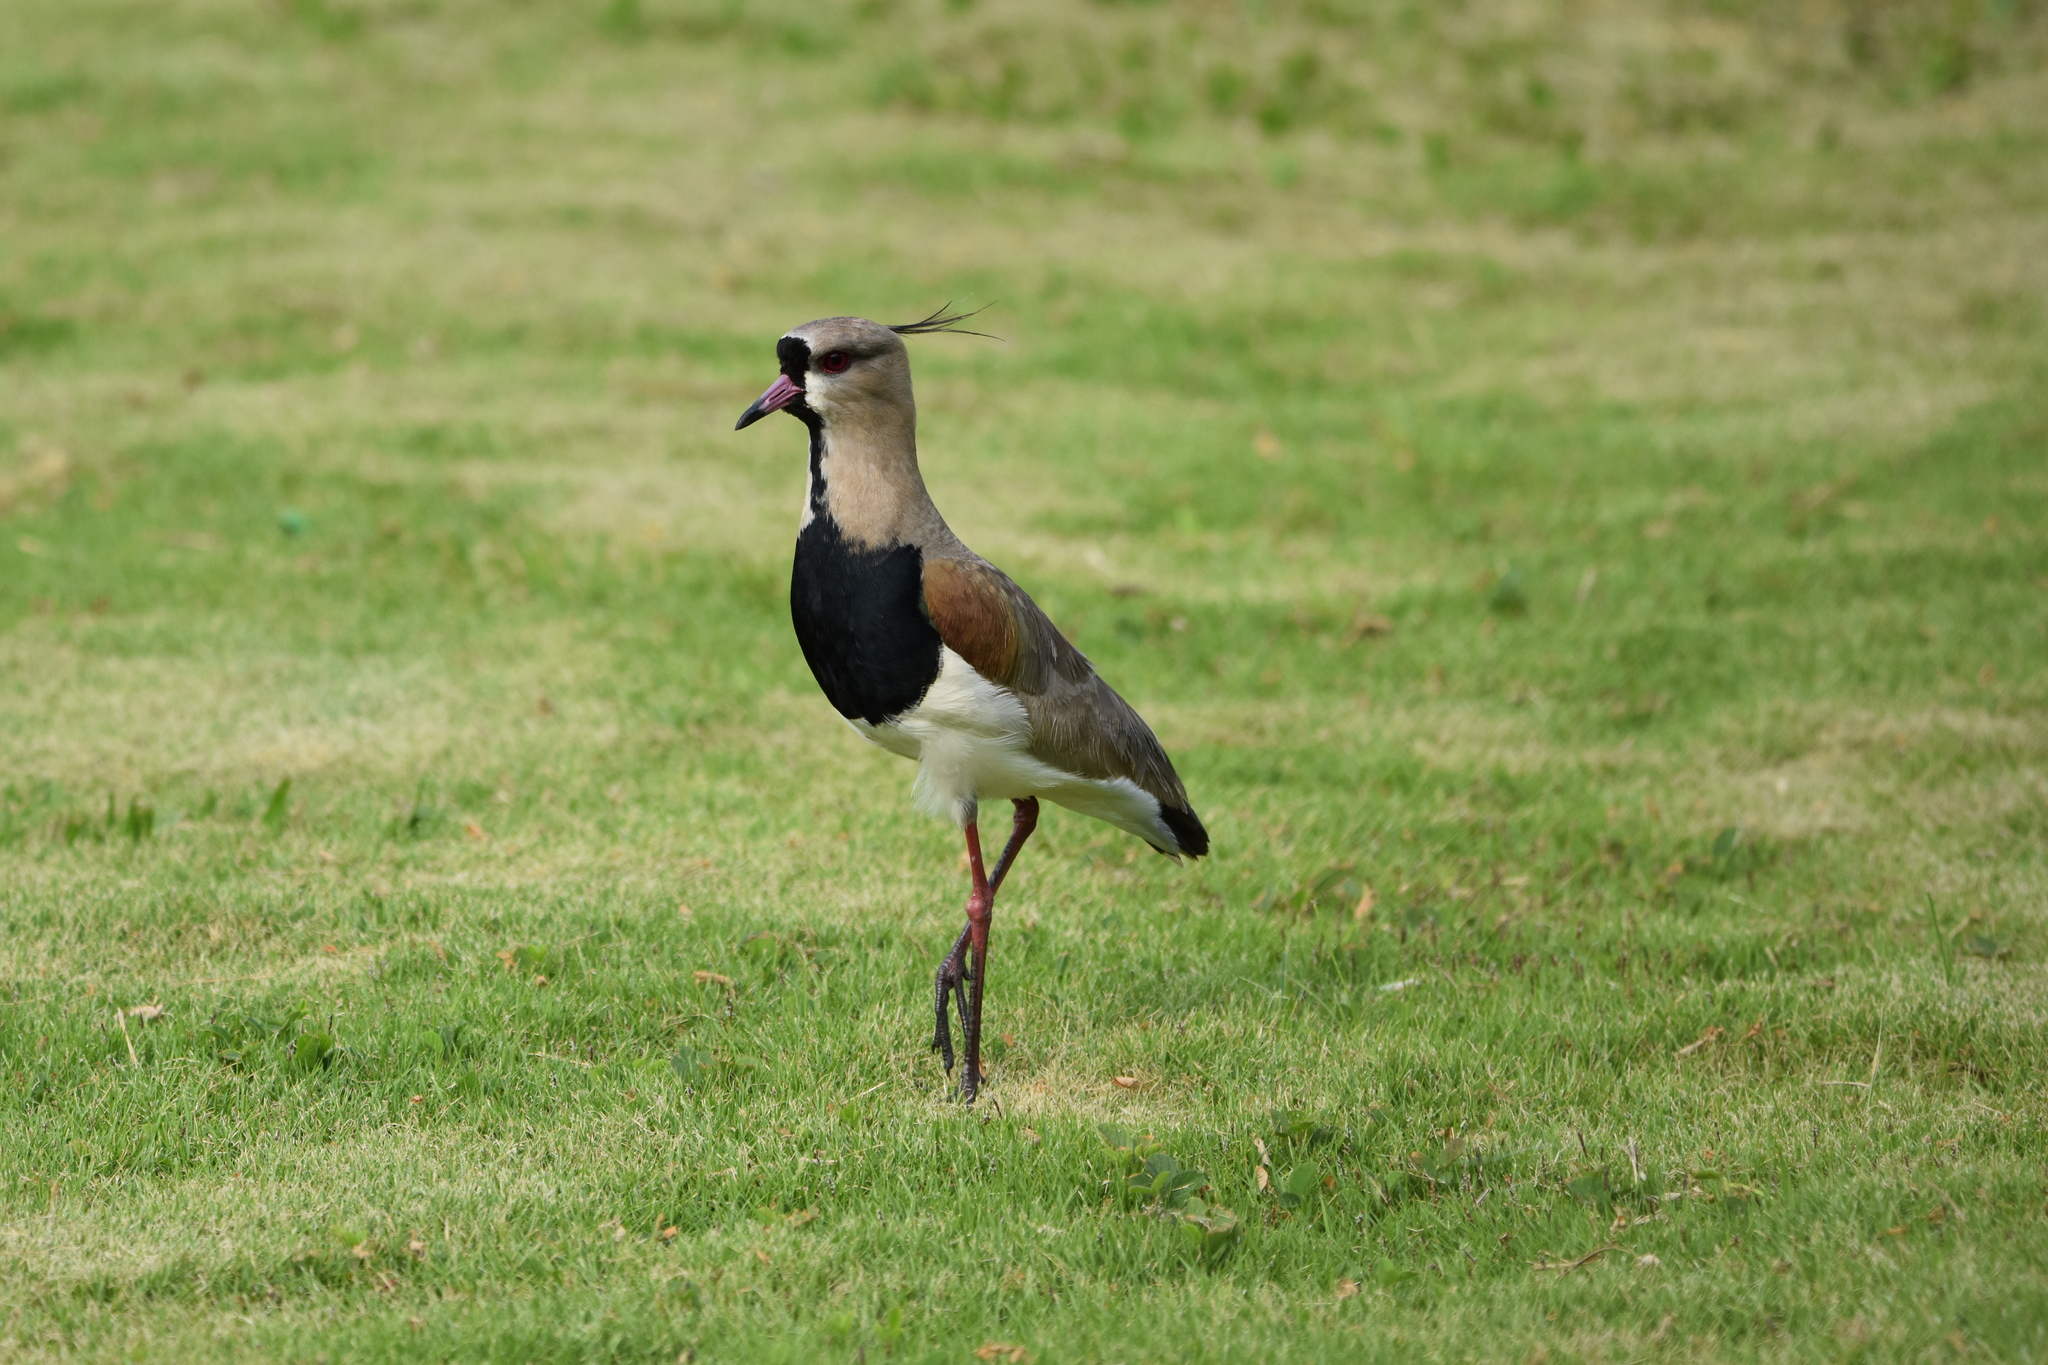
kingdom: Animalia
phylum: Chordata
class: Aves
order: Charadriiformes
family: Charadriidae
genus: Vanellus
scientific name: Vanellus chilensis
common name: Southern lapwing
